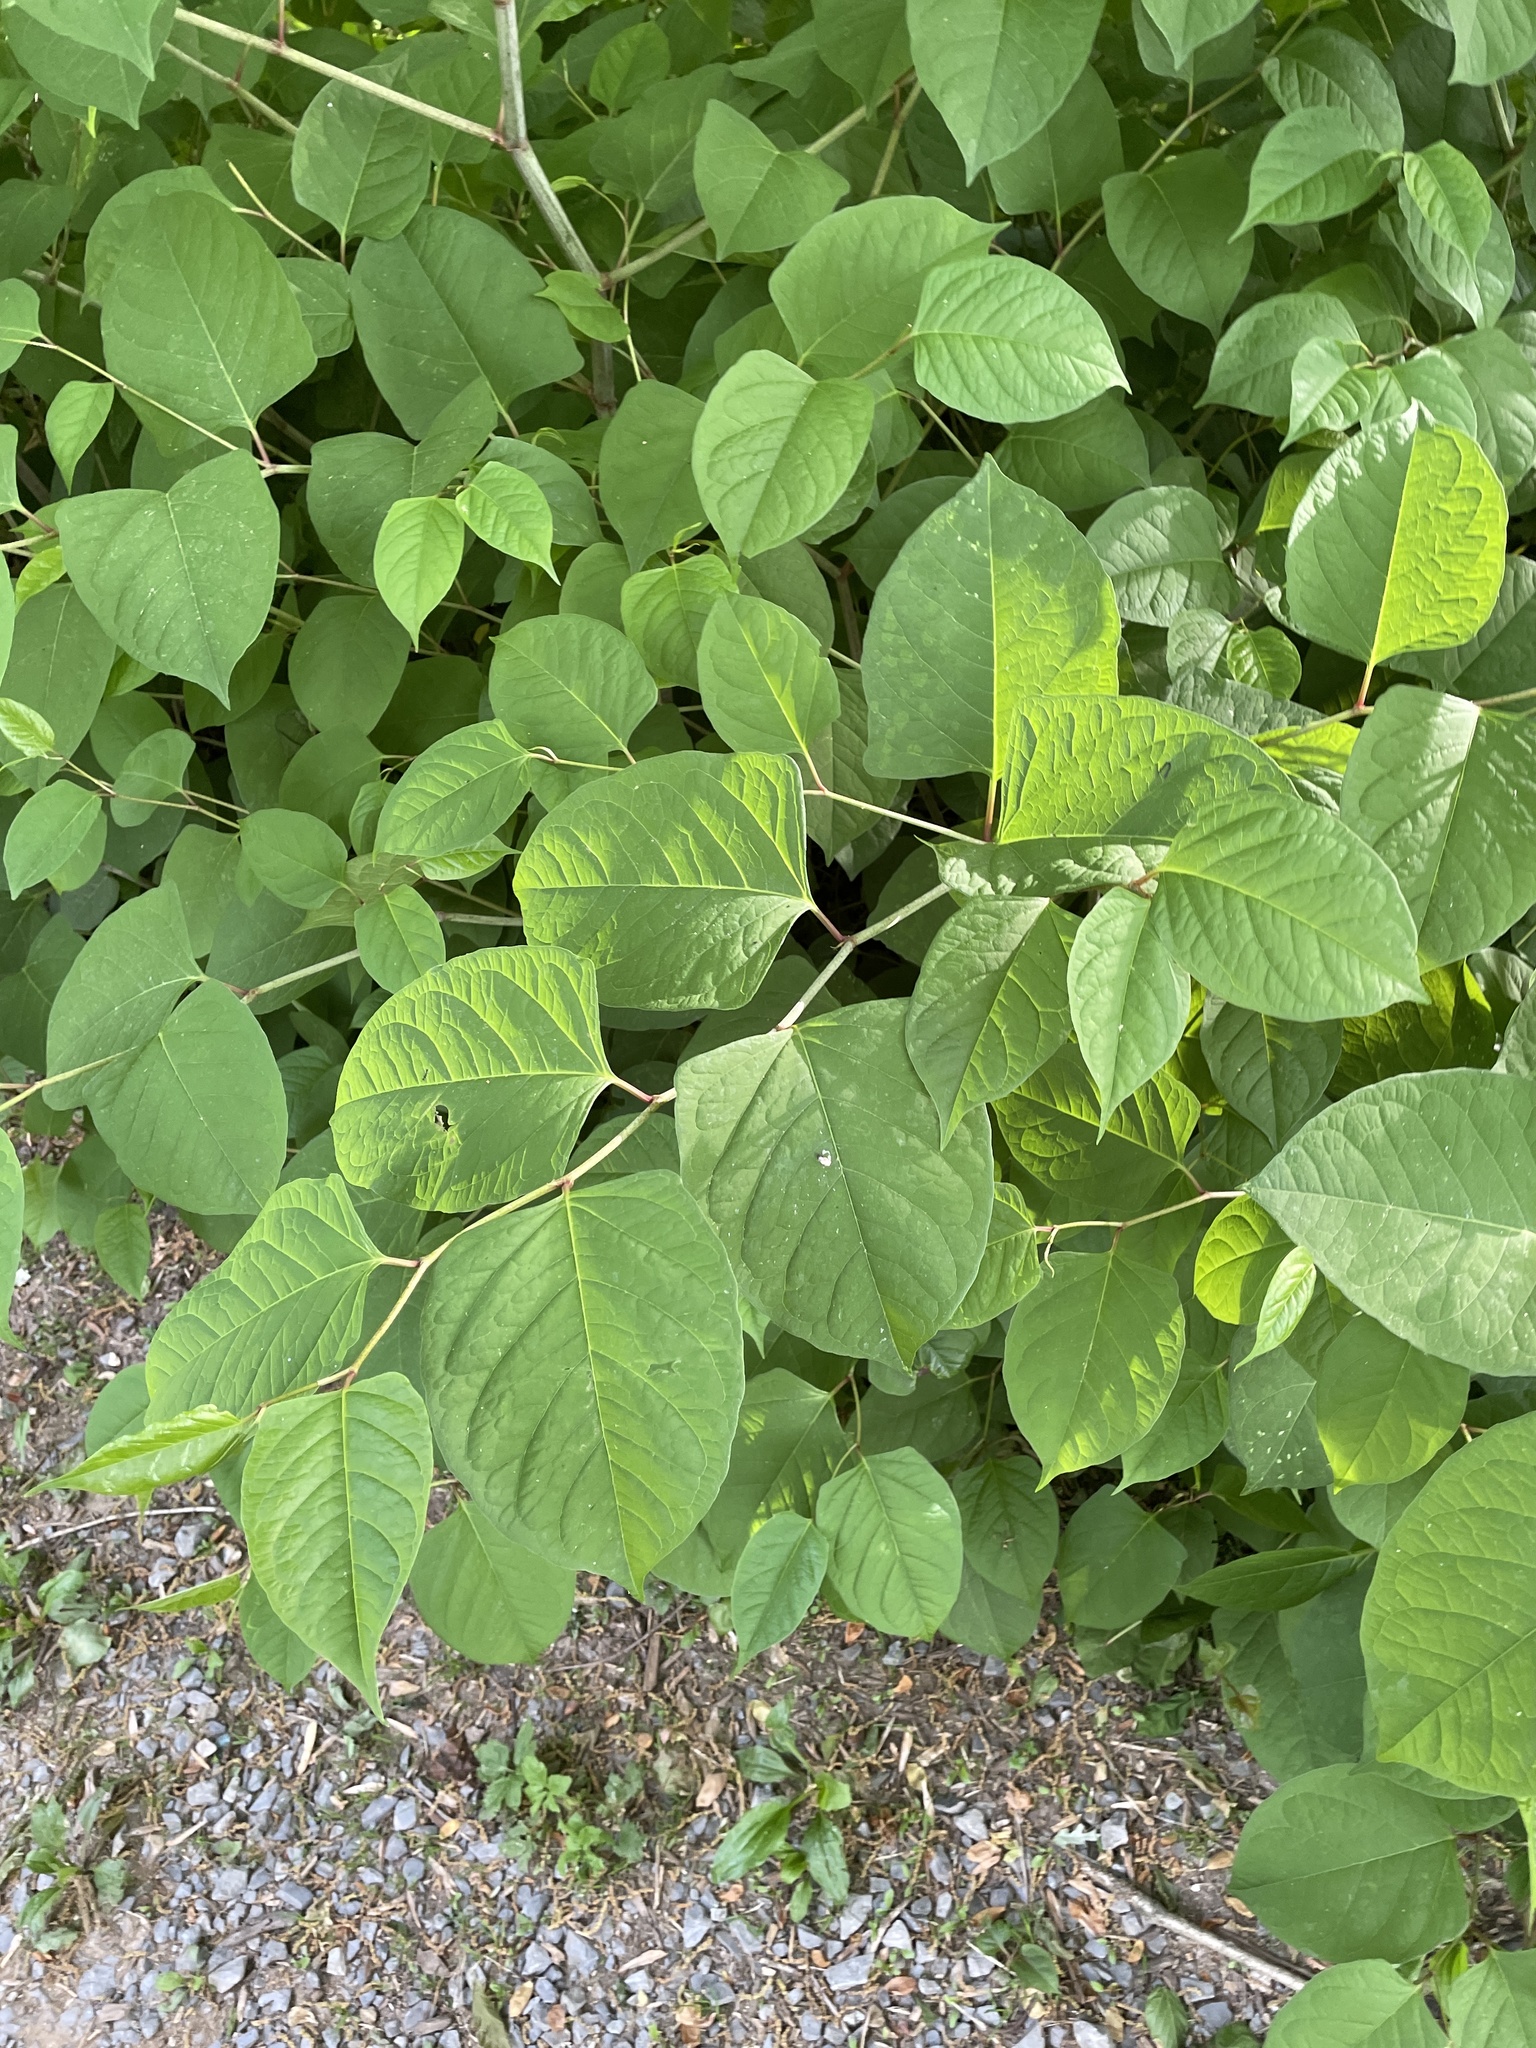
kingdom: Plantae
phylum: Tracheophyta
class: Magnoliopsida
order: Caryophyllales
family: Polygonaceae
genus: Reynoutria
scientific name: Reynoutria japonica
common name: Japanese knotweed
